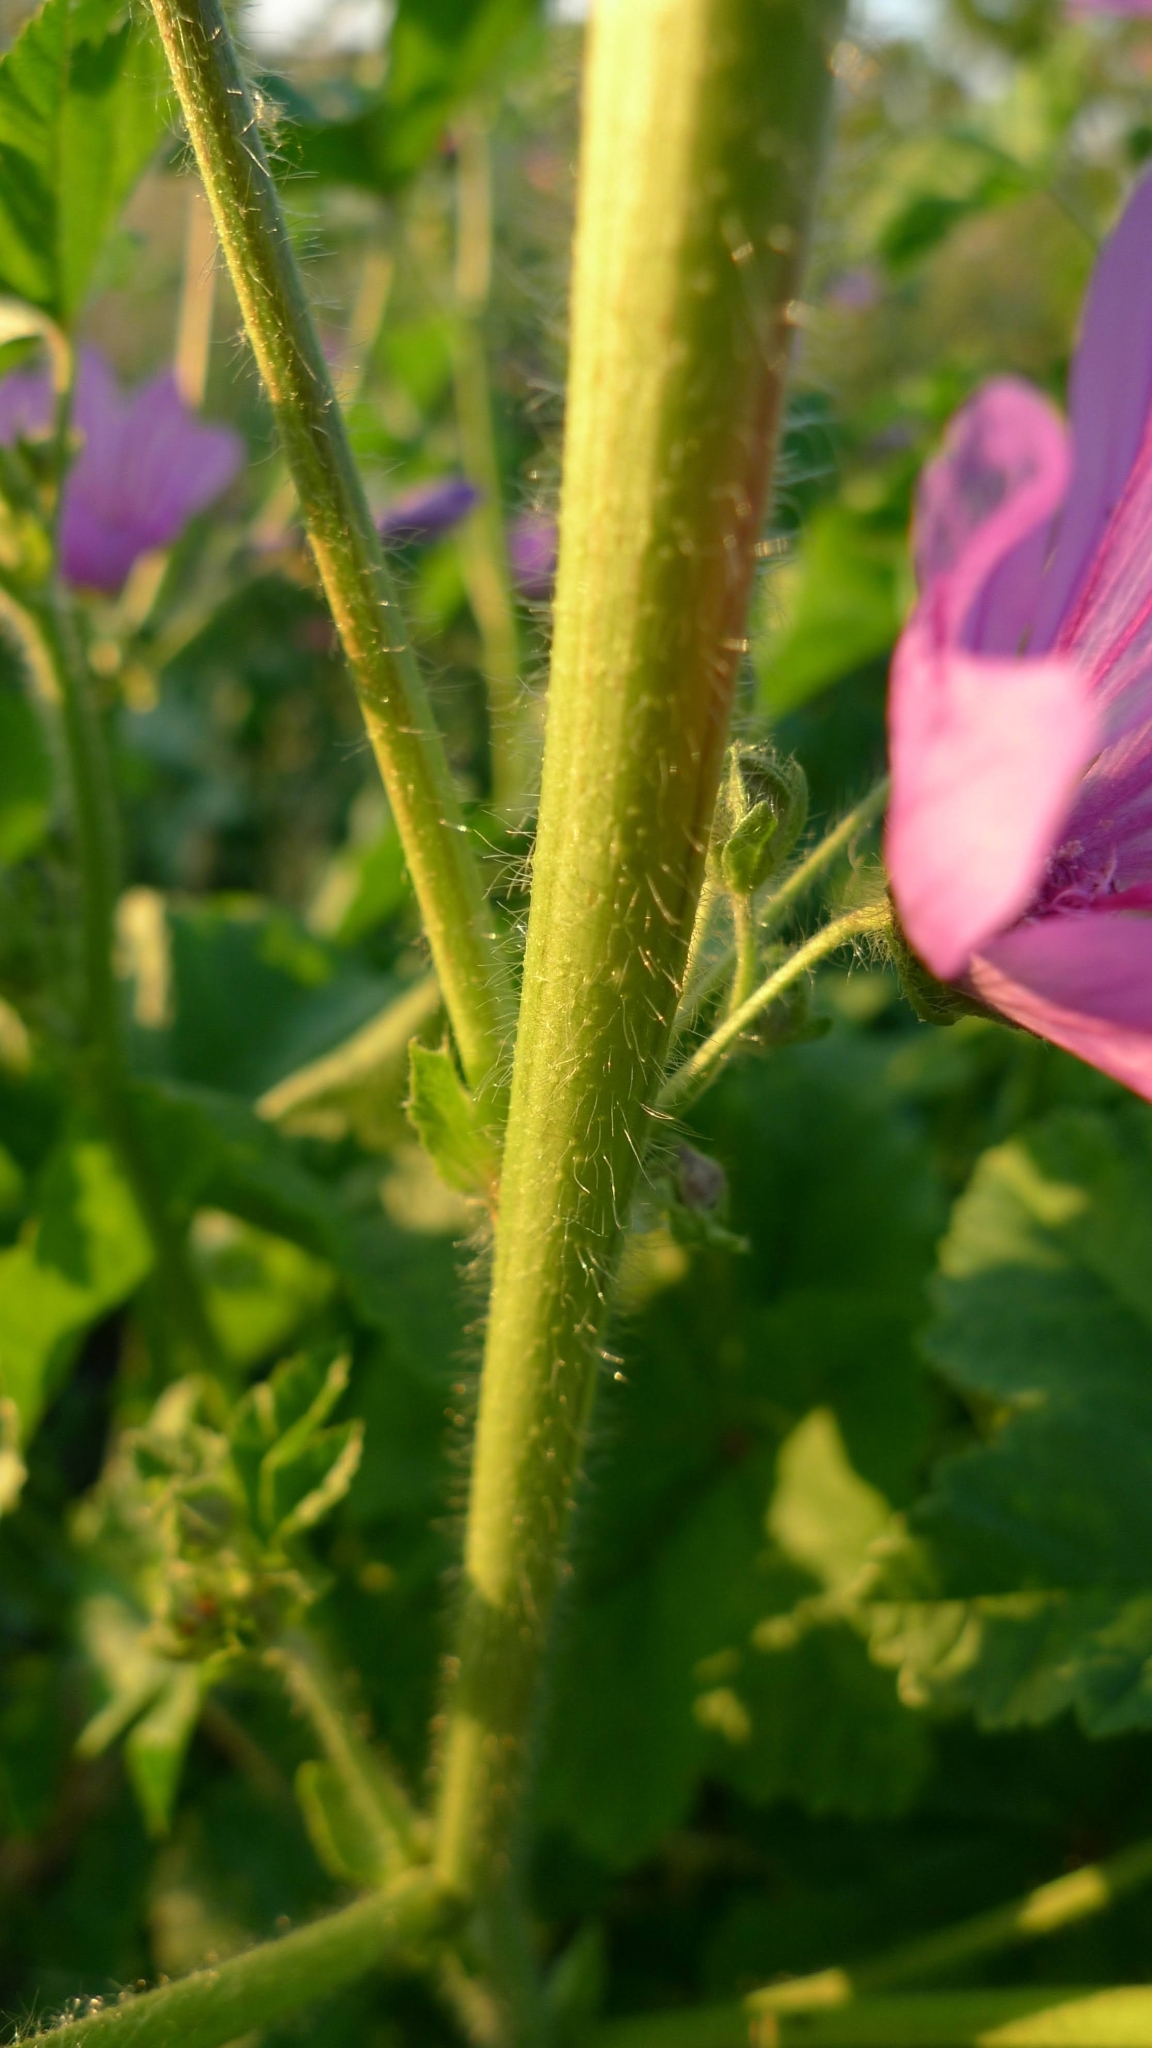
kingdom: Plantae
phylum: Tracheophyta
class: Magnoliopsida
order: Malvales
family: Malvaceae
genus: Malva
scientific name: Malva sylvestris
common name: Common mallow
